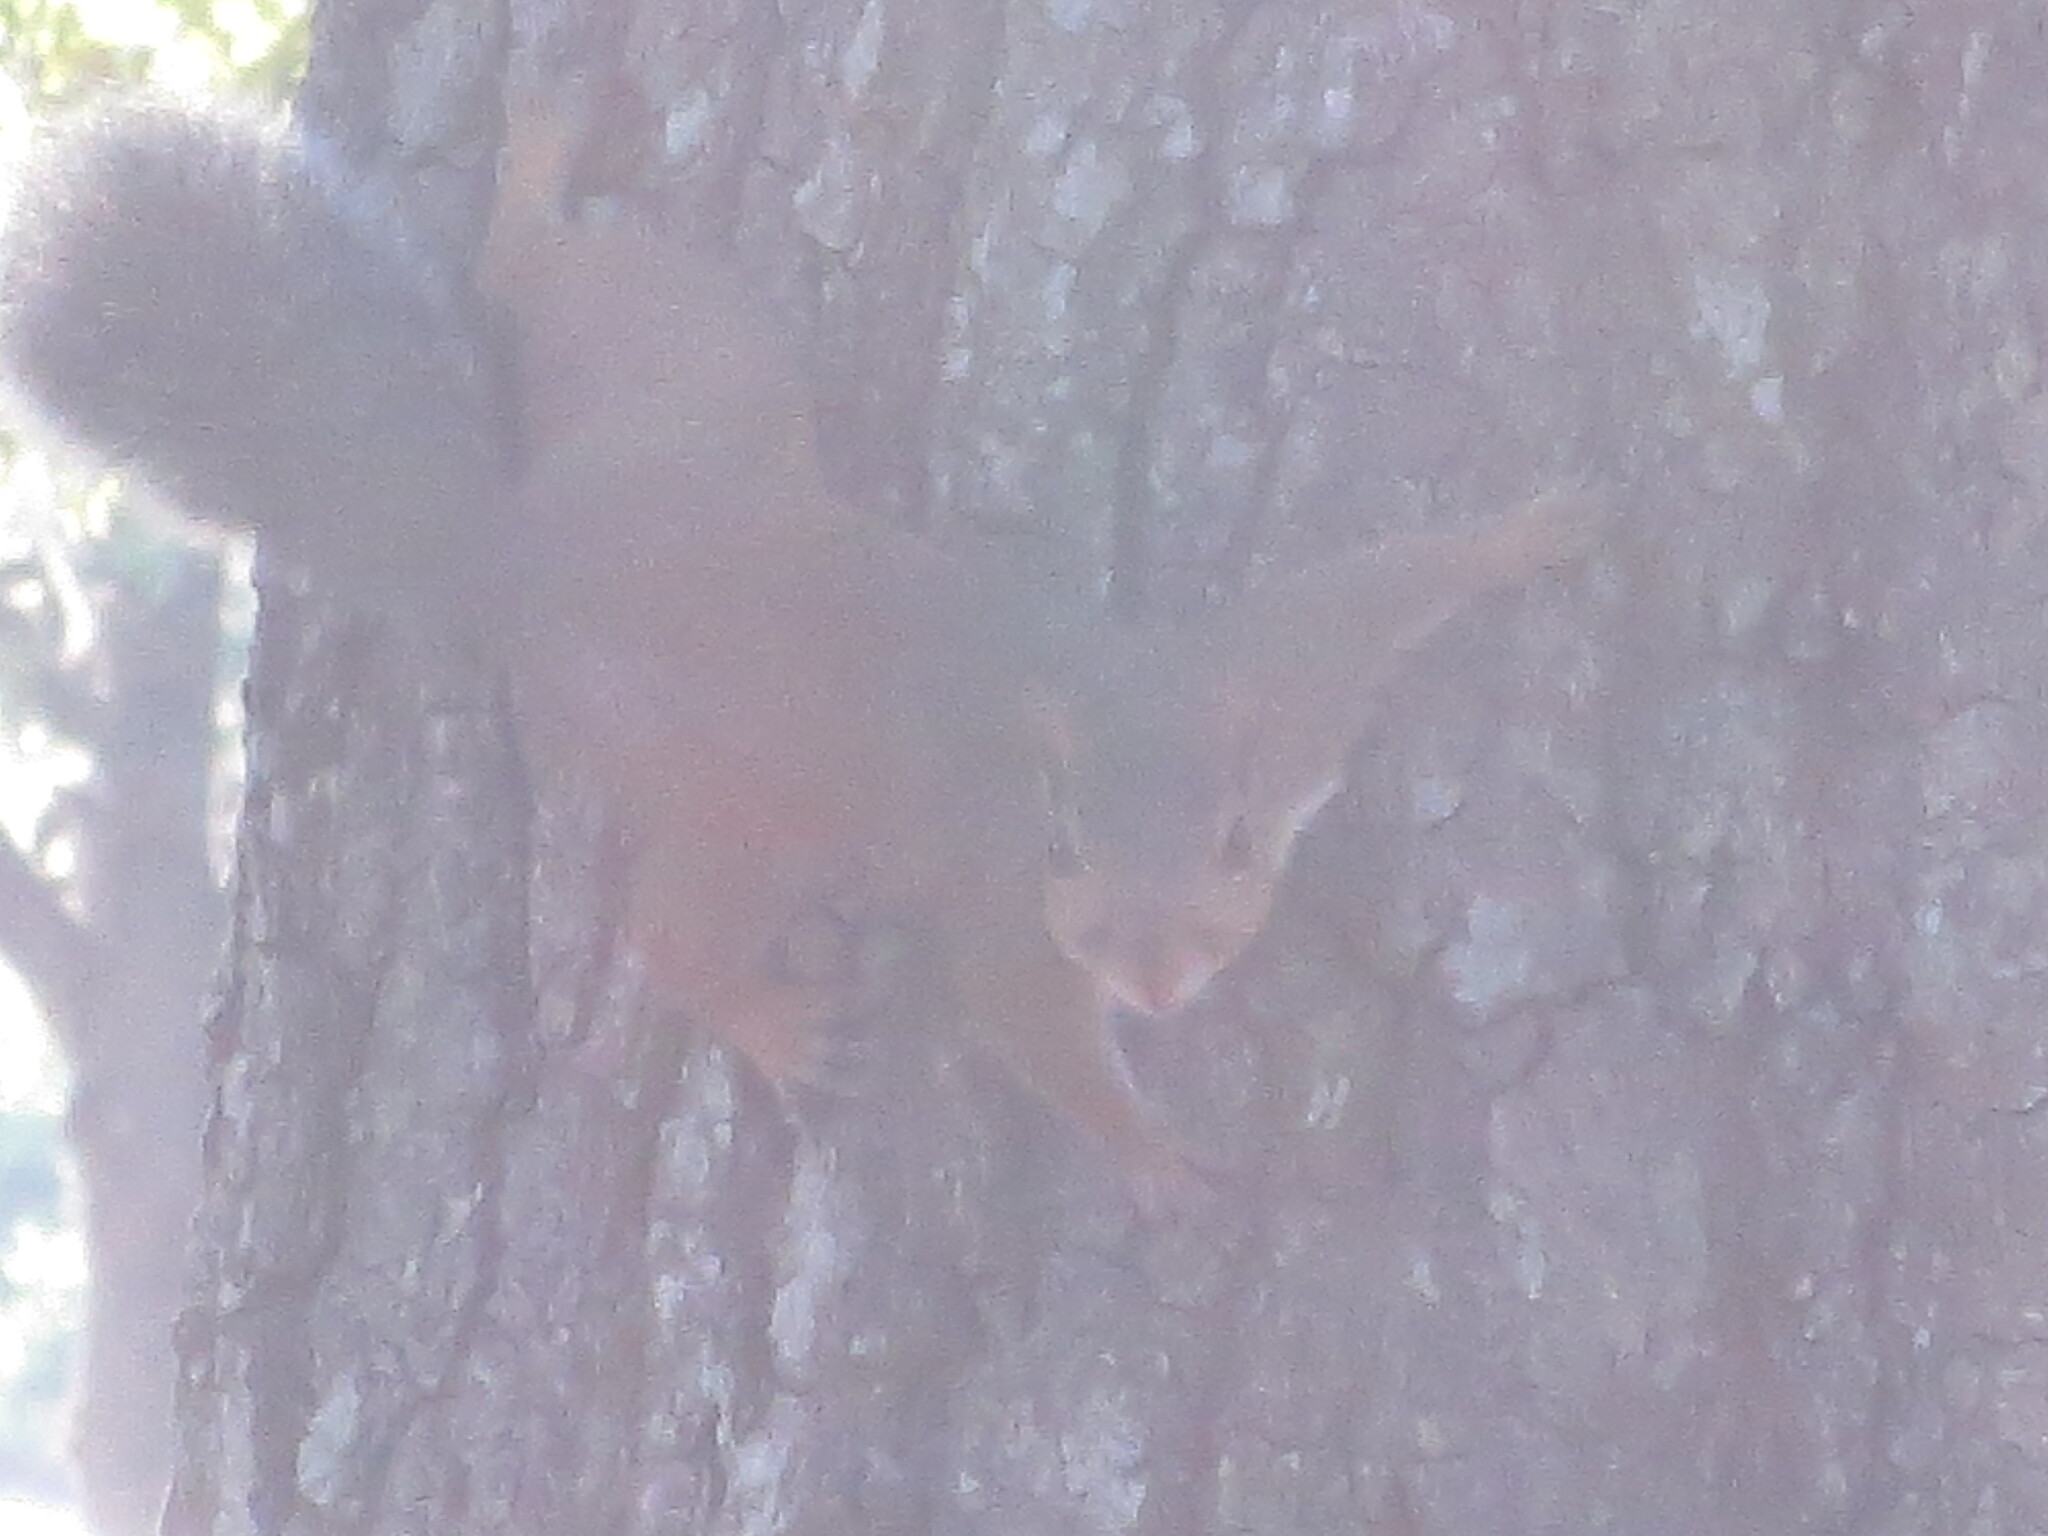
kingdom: Animalia
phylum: Chordata
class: Mammalia
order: Rodentia
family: Sciuridae
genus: Sciurus
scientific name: Sciurus carolinensis
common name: Eastern gray squirrel
